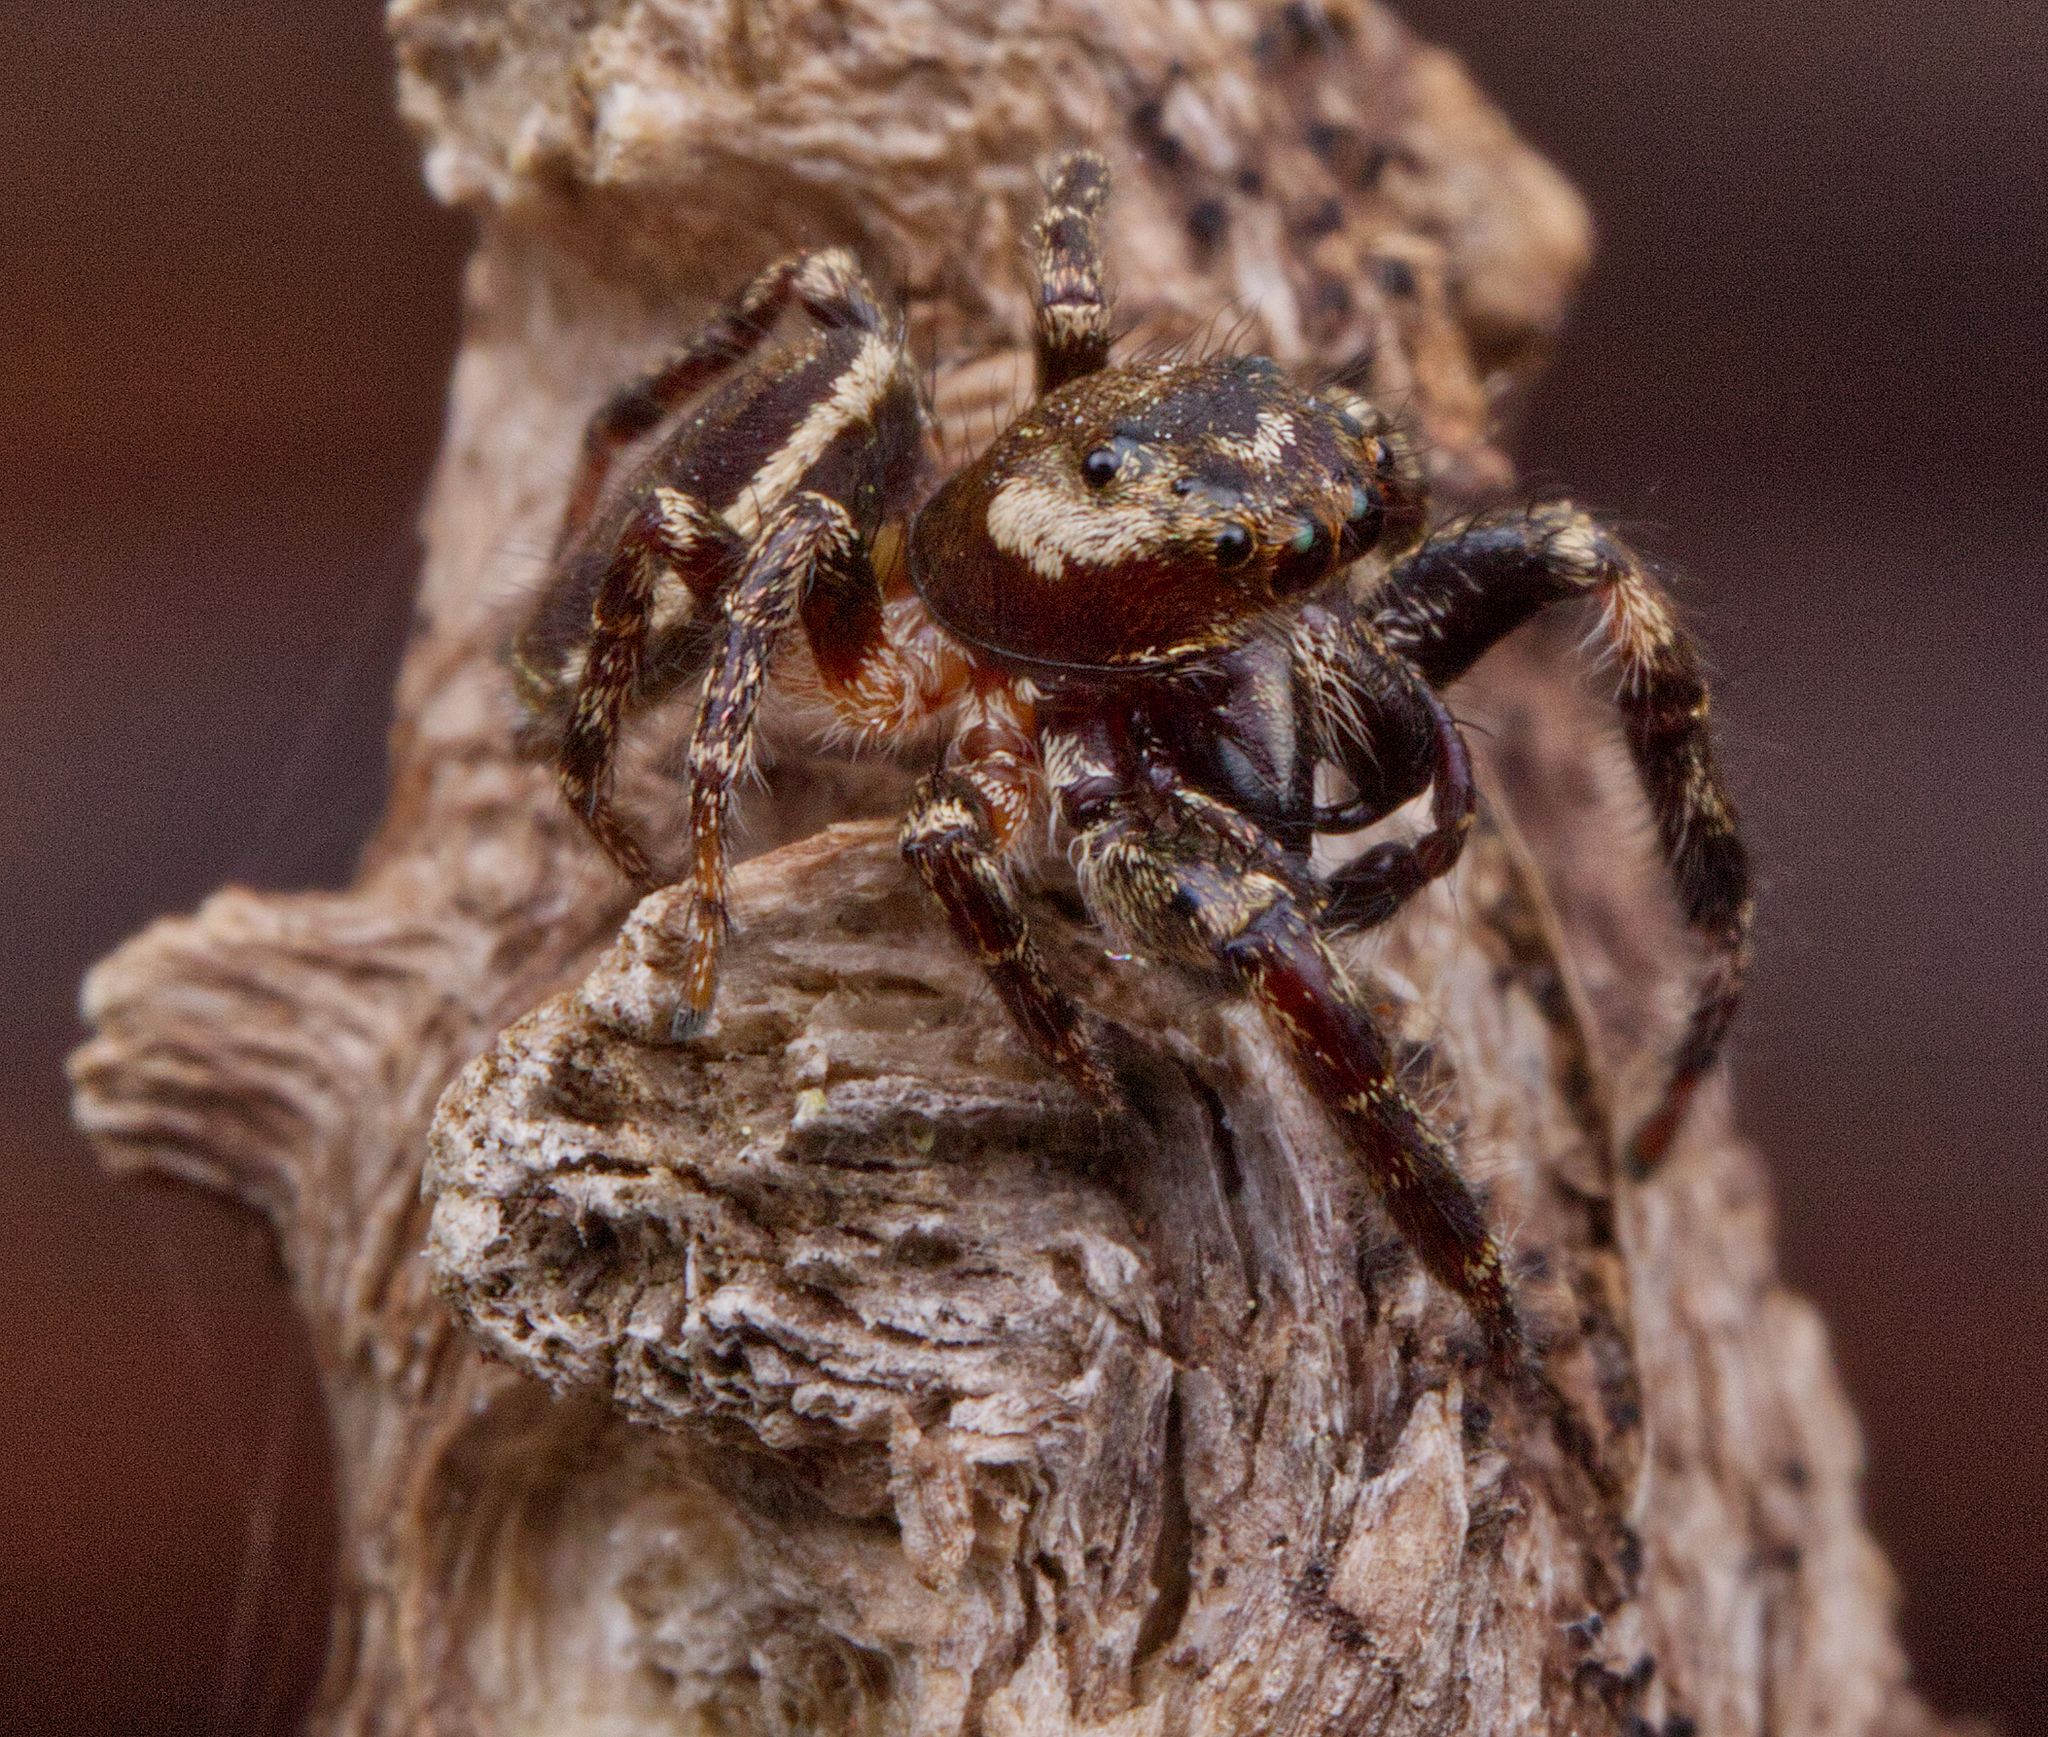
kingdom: Animalia
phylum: Arthropoda
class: Arachnida
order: Araneae
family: Salticidae
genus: Eris
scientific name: Eris militaris
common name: Bronze jumper
